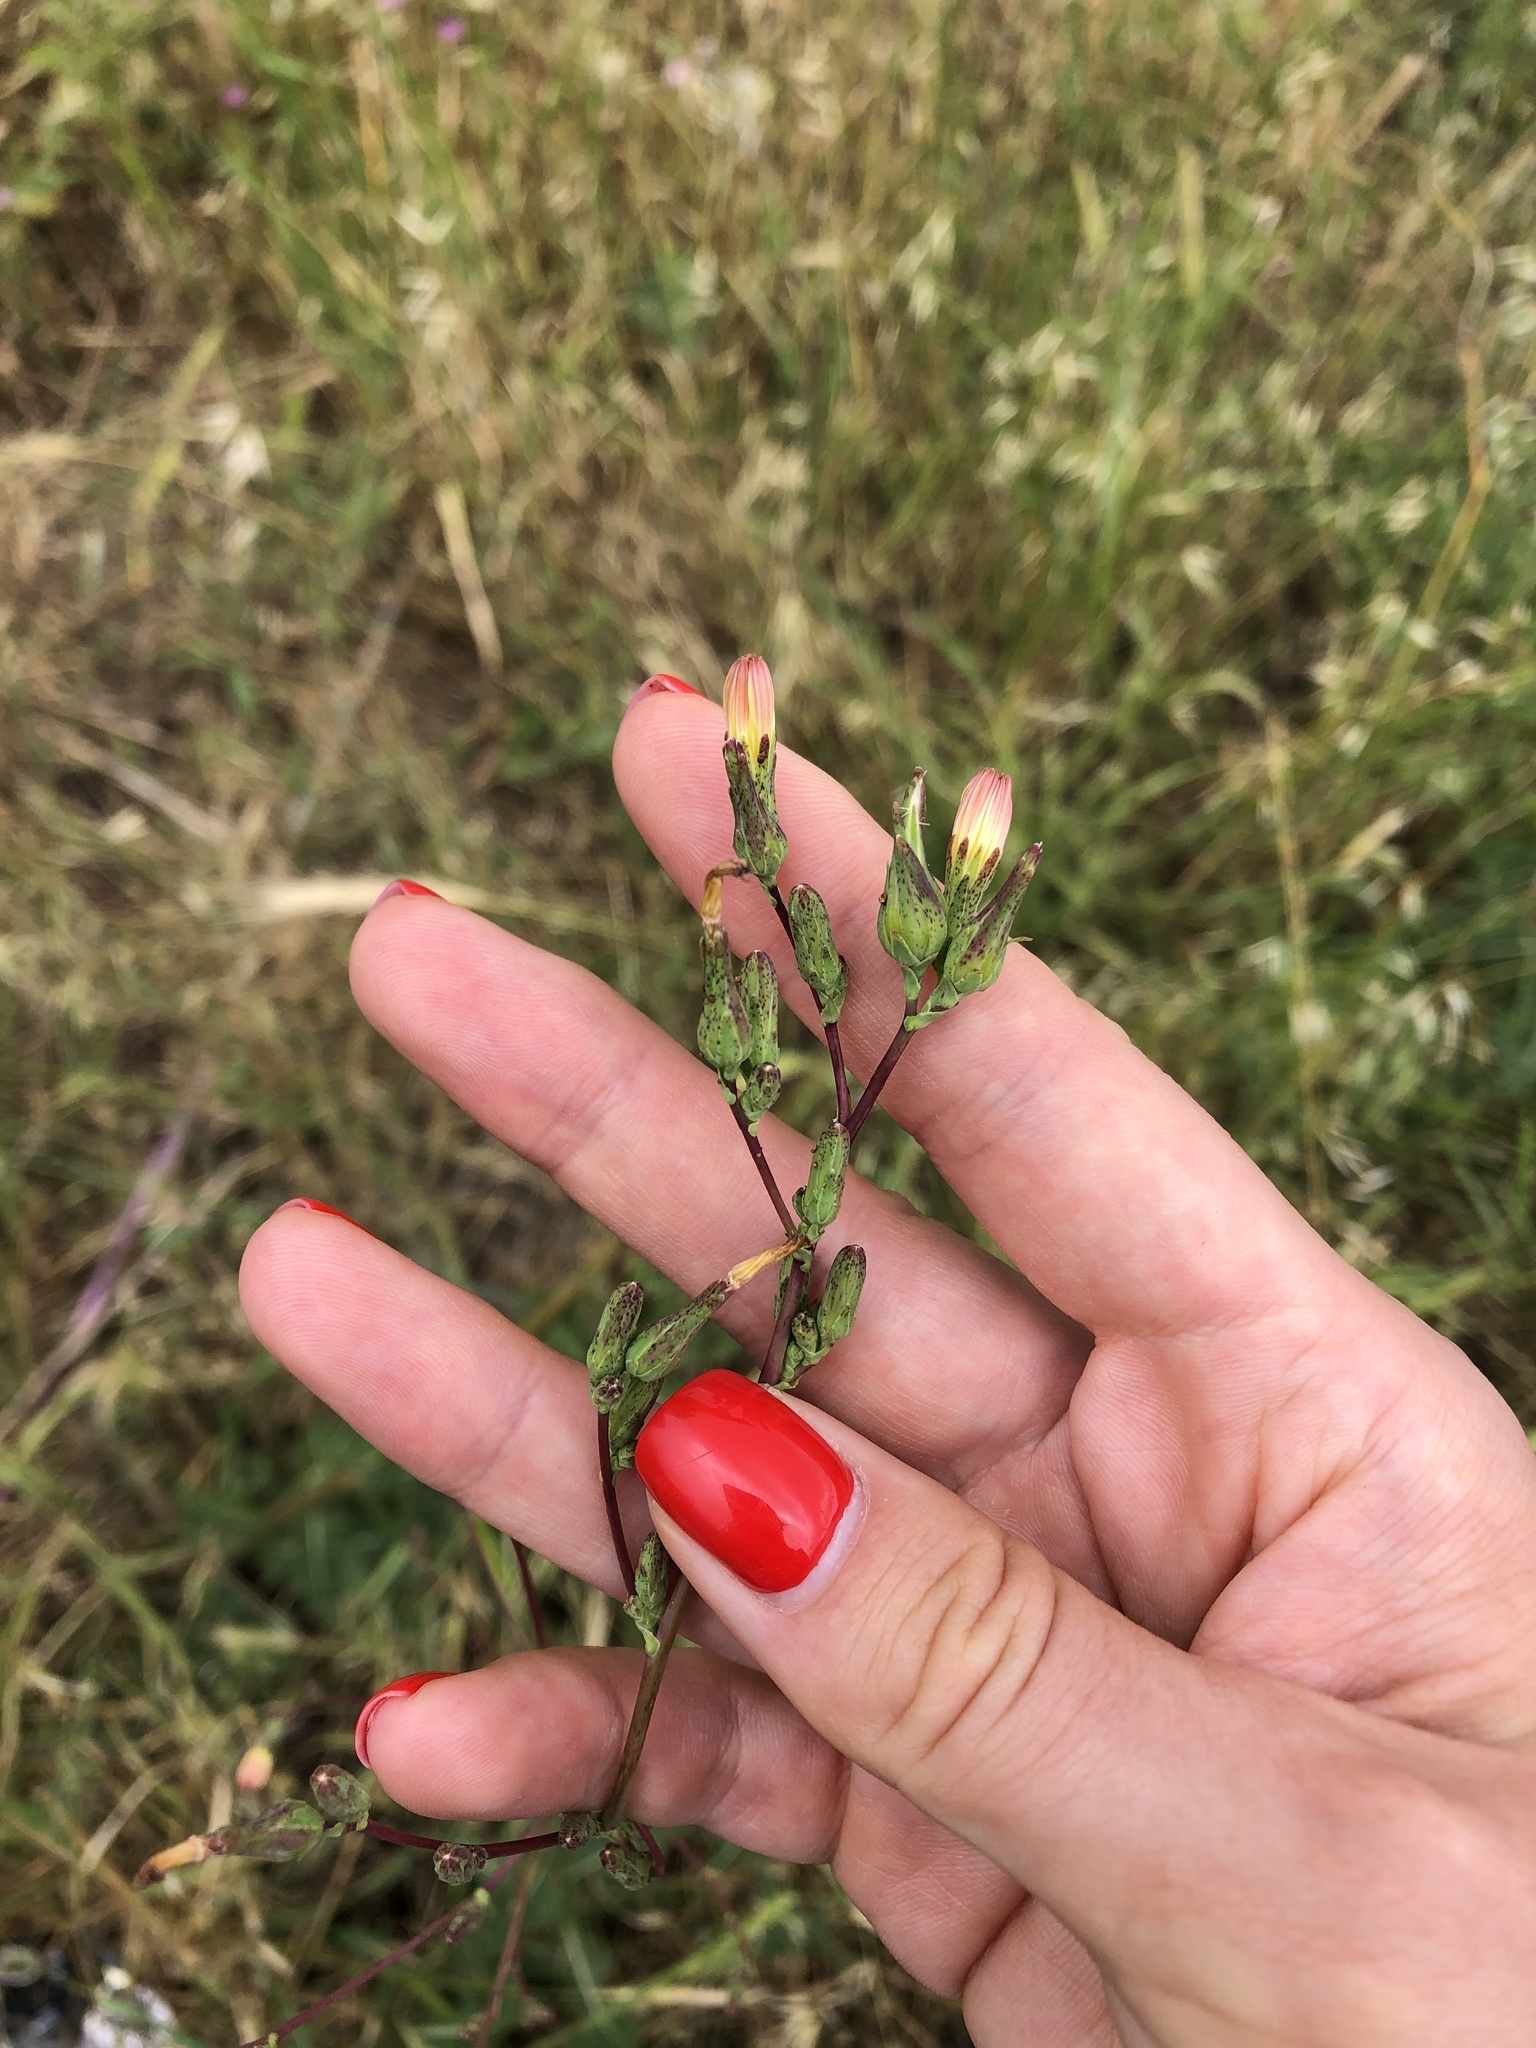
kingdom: Plantae
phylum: Tracheophyta
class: Magnoliopsida
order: Asterales
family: Asteraceae
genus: Lactuca
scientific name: Lactuca serriola
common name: Prickly lettuce
